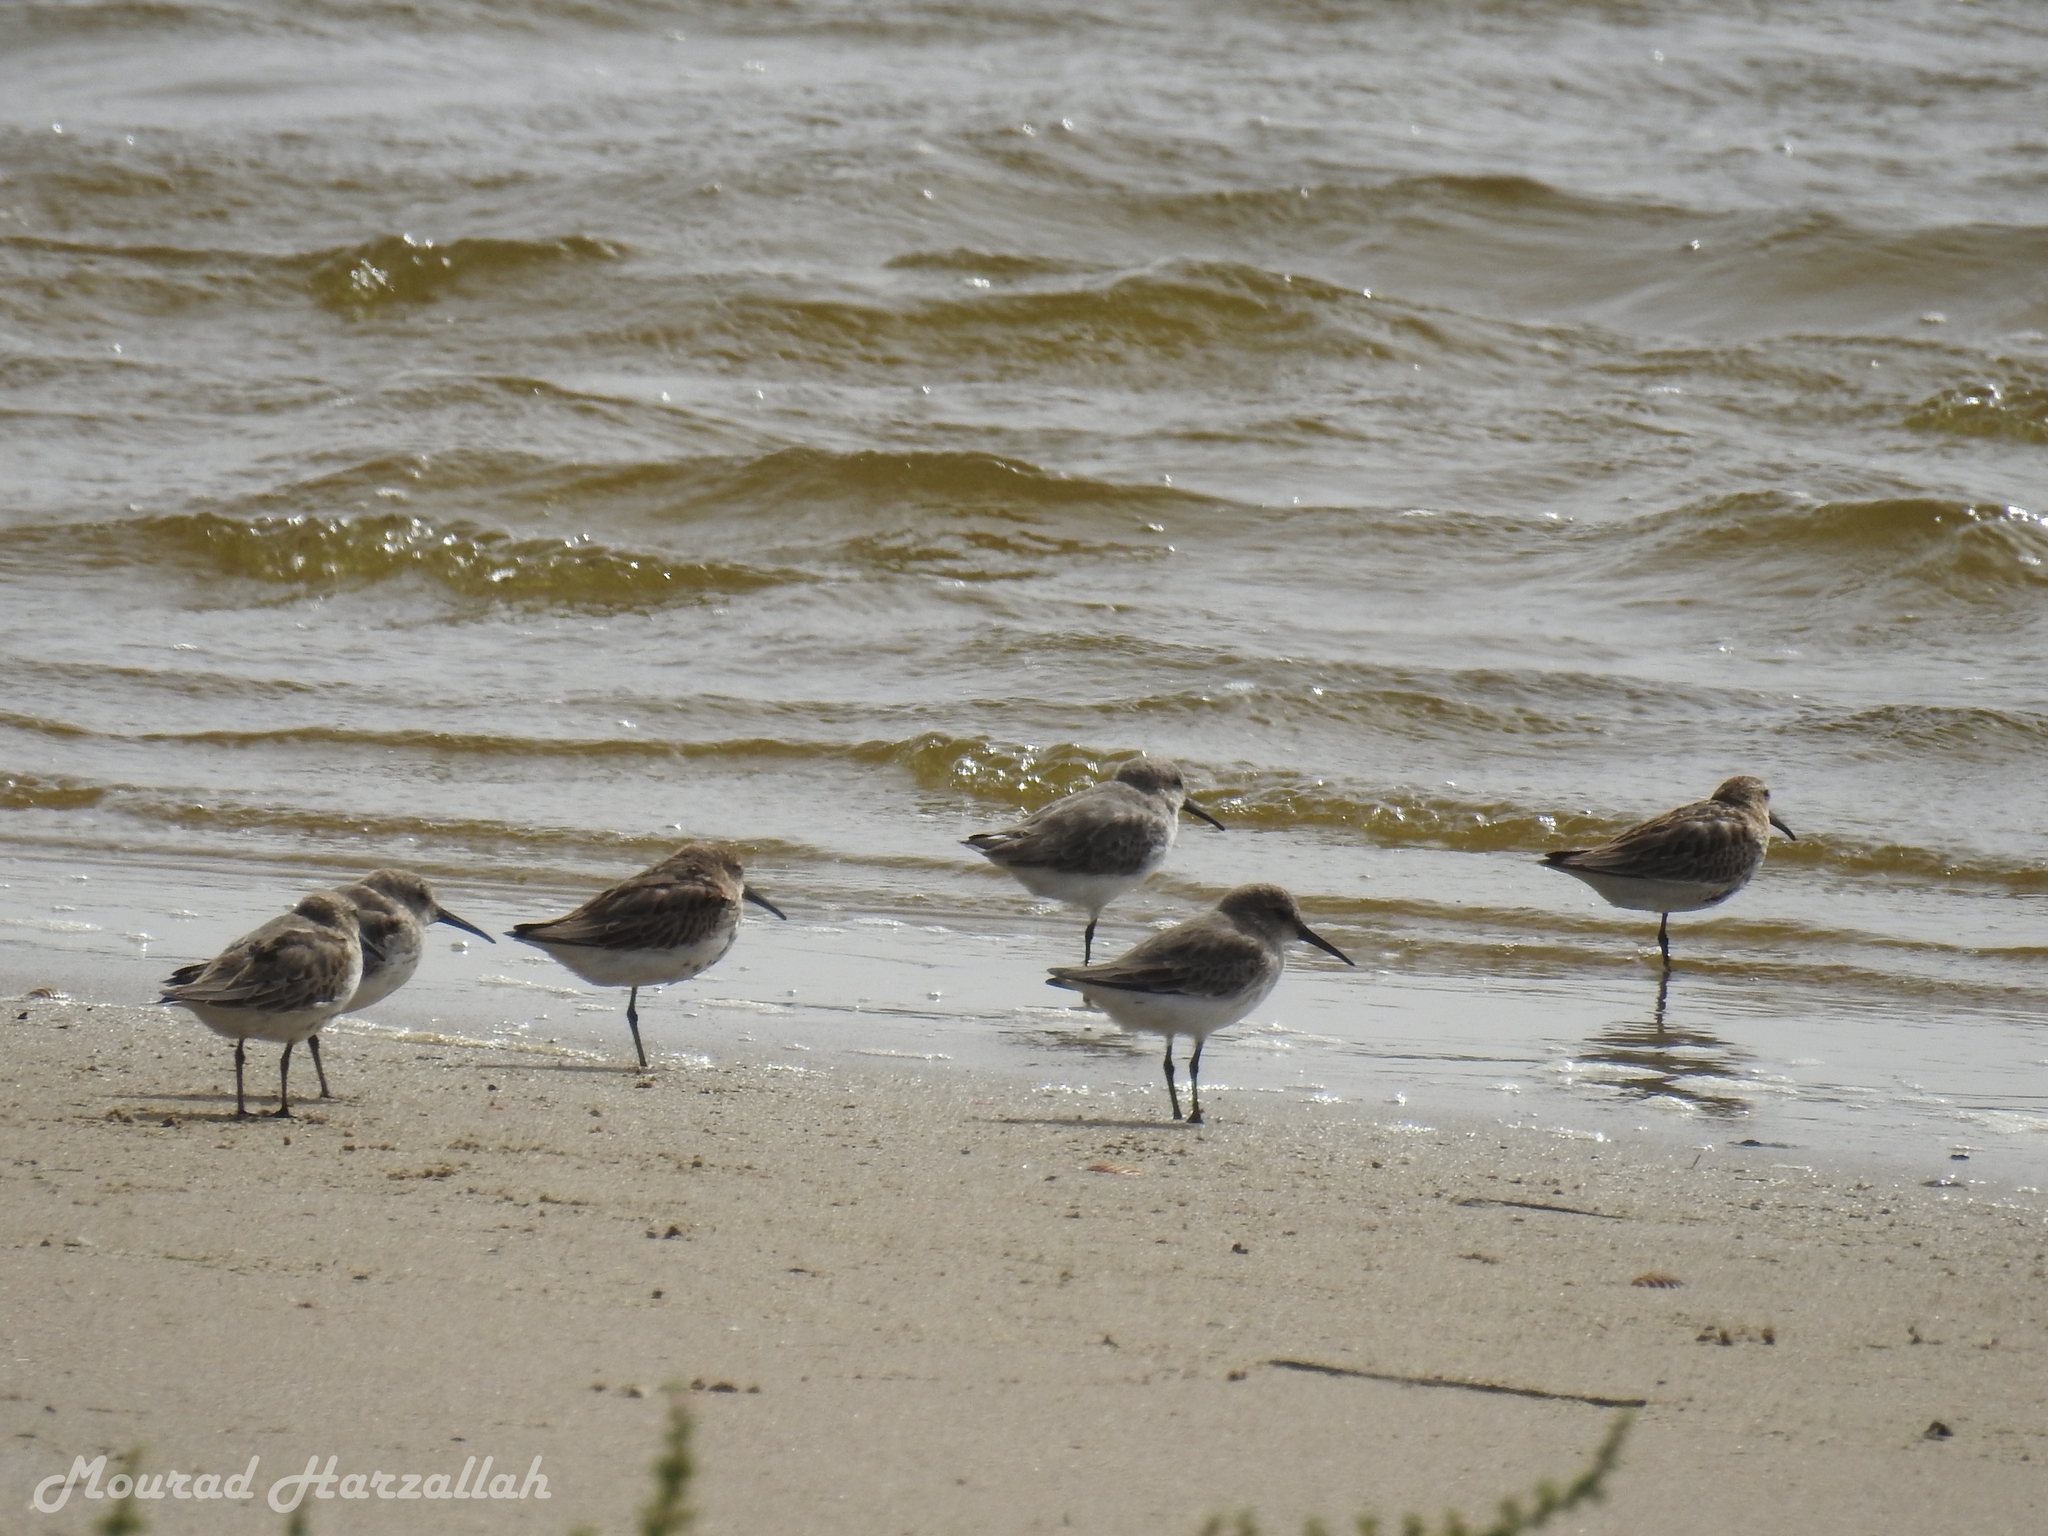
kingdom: Animalia
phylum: Chordata
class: Aves
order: Charadriiformes
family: Scolopacidae
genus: Calidris
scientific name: Calidris alpina
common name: Dunlin
